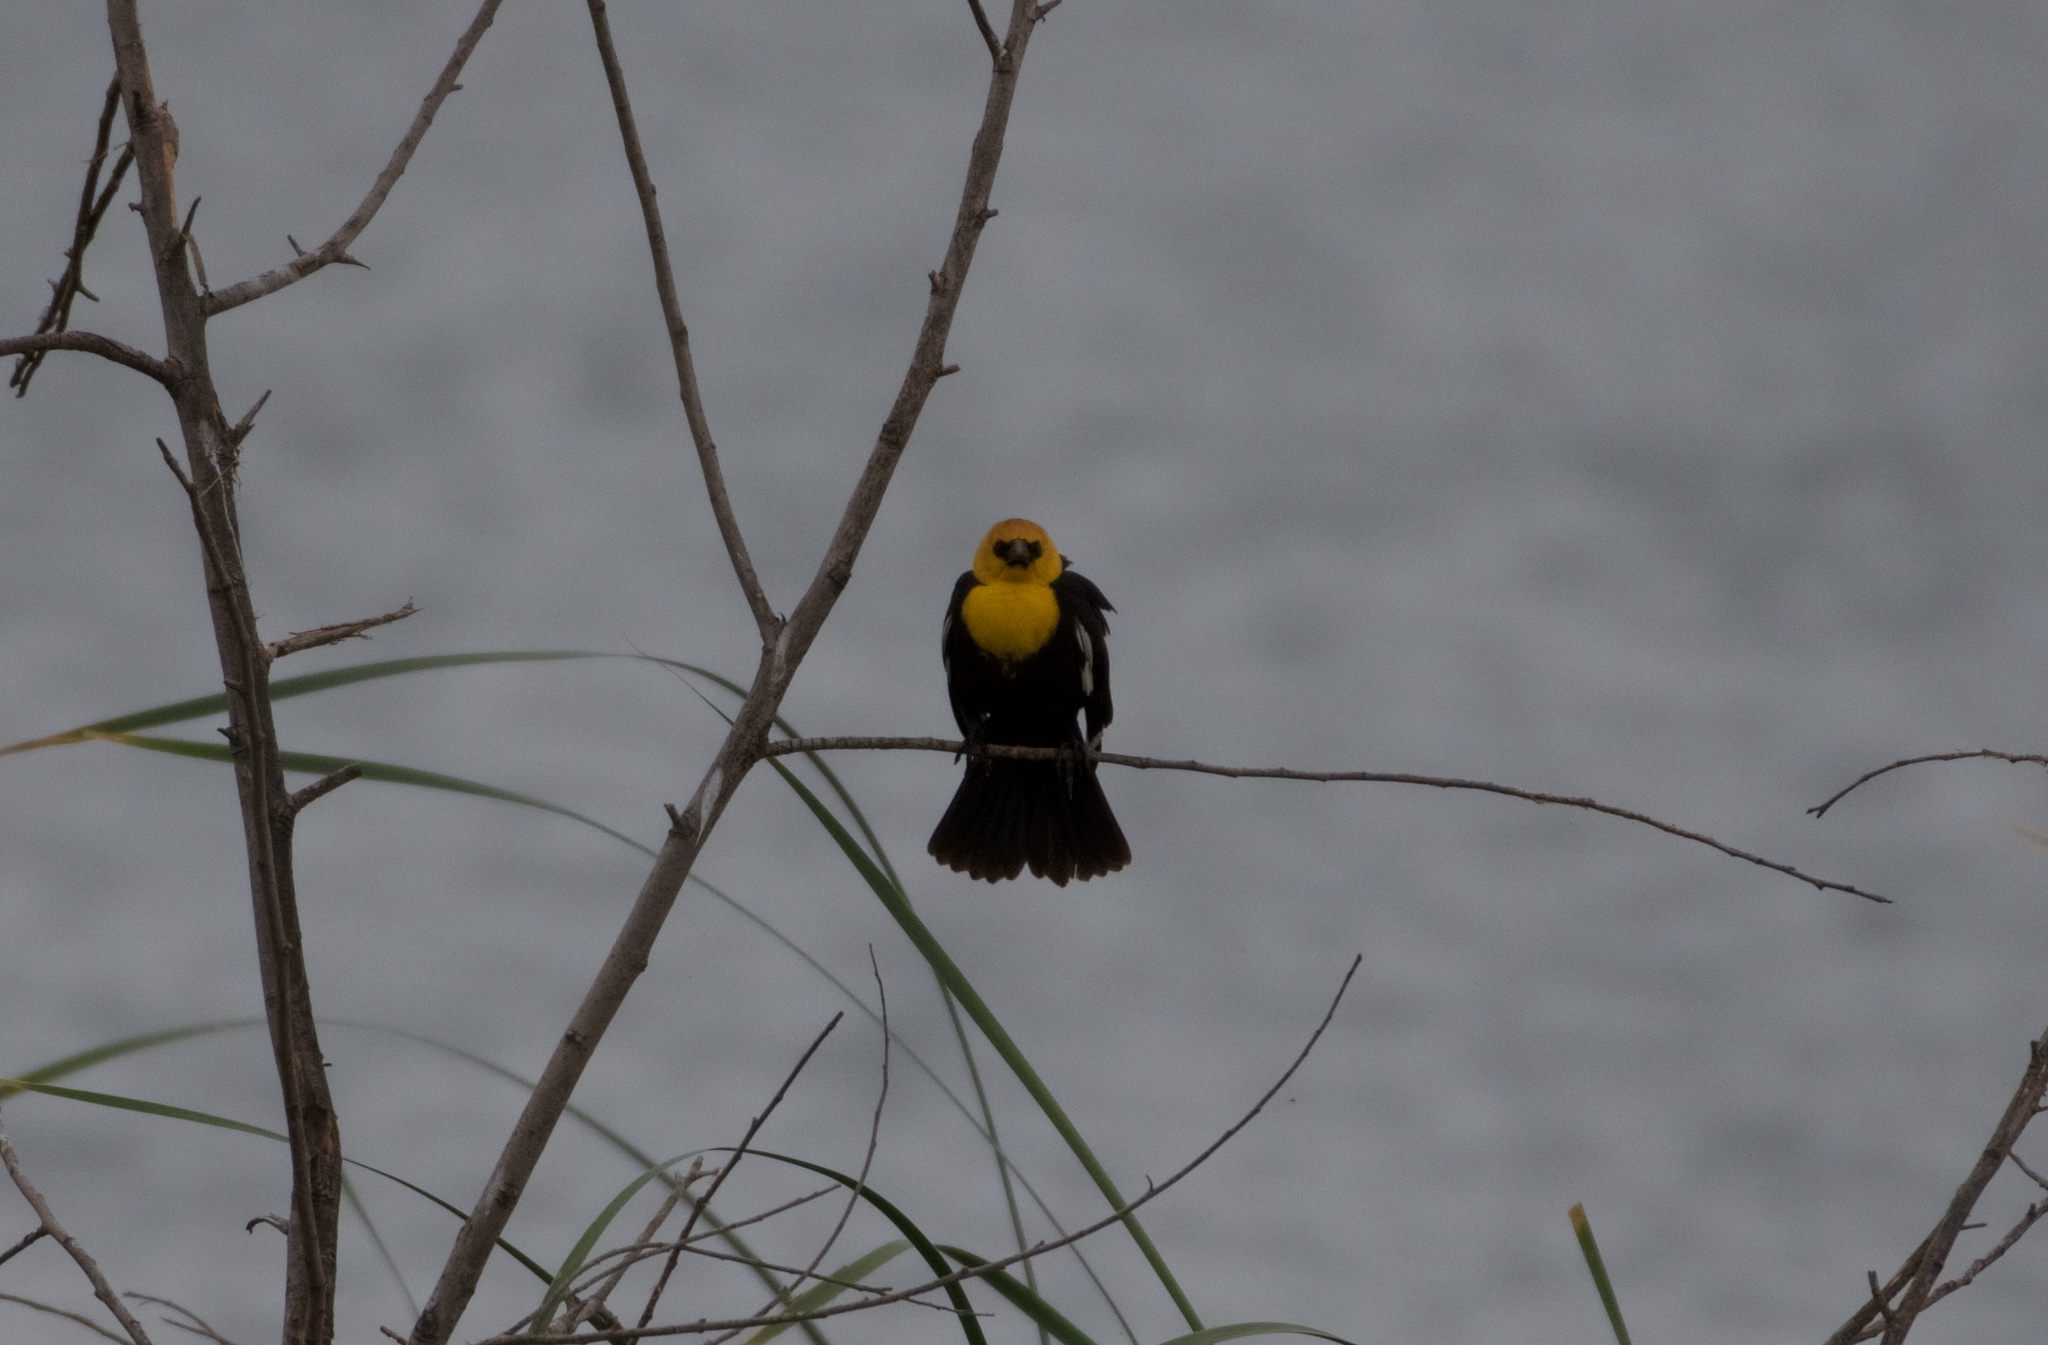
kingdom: Animalia
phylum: Chordata
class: Aves
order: Passeriformes
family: Icteridae
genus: Xanthocephalus
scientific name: Xanthocephalus xanthocephalus
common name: Yellow-headed blackbird
